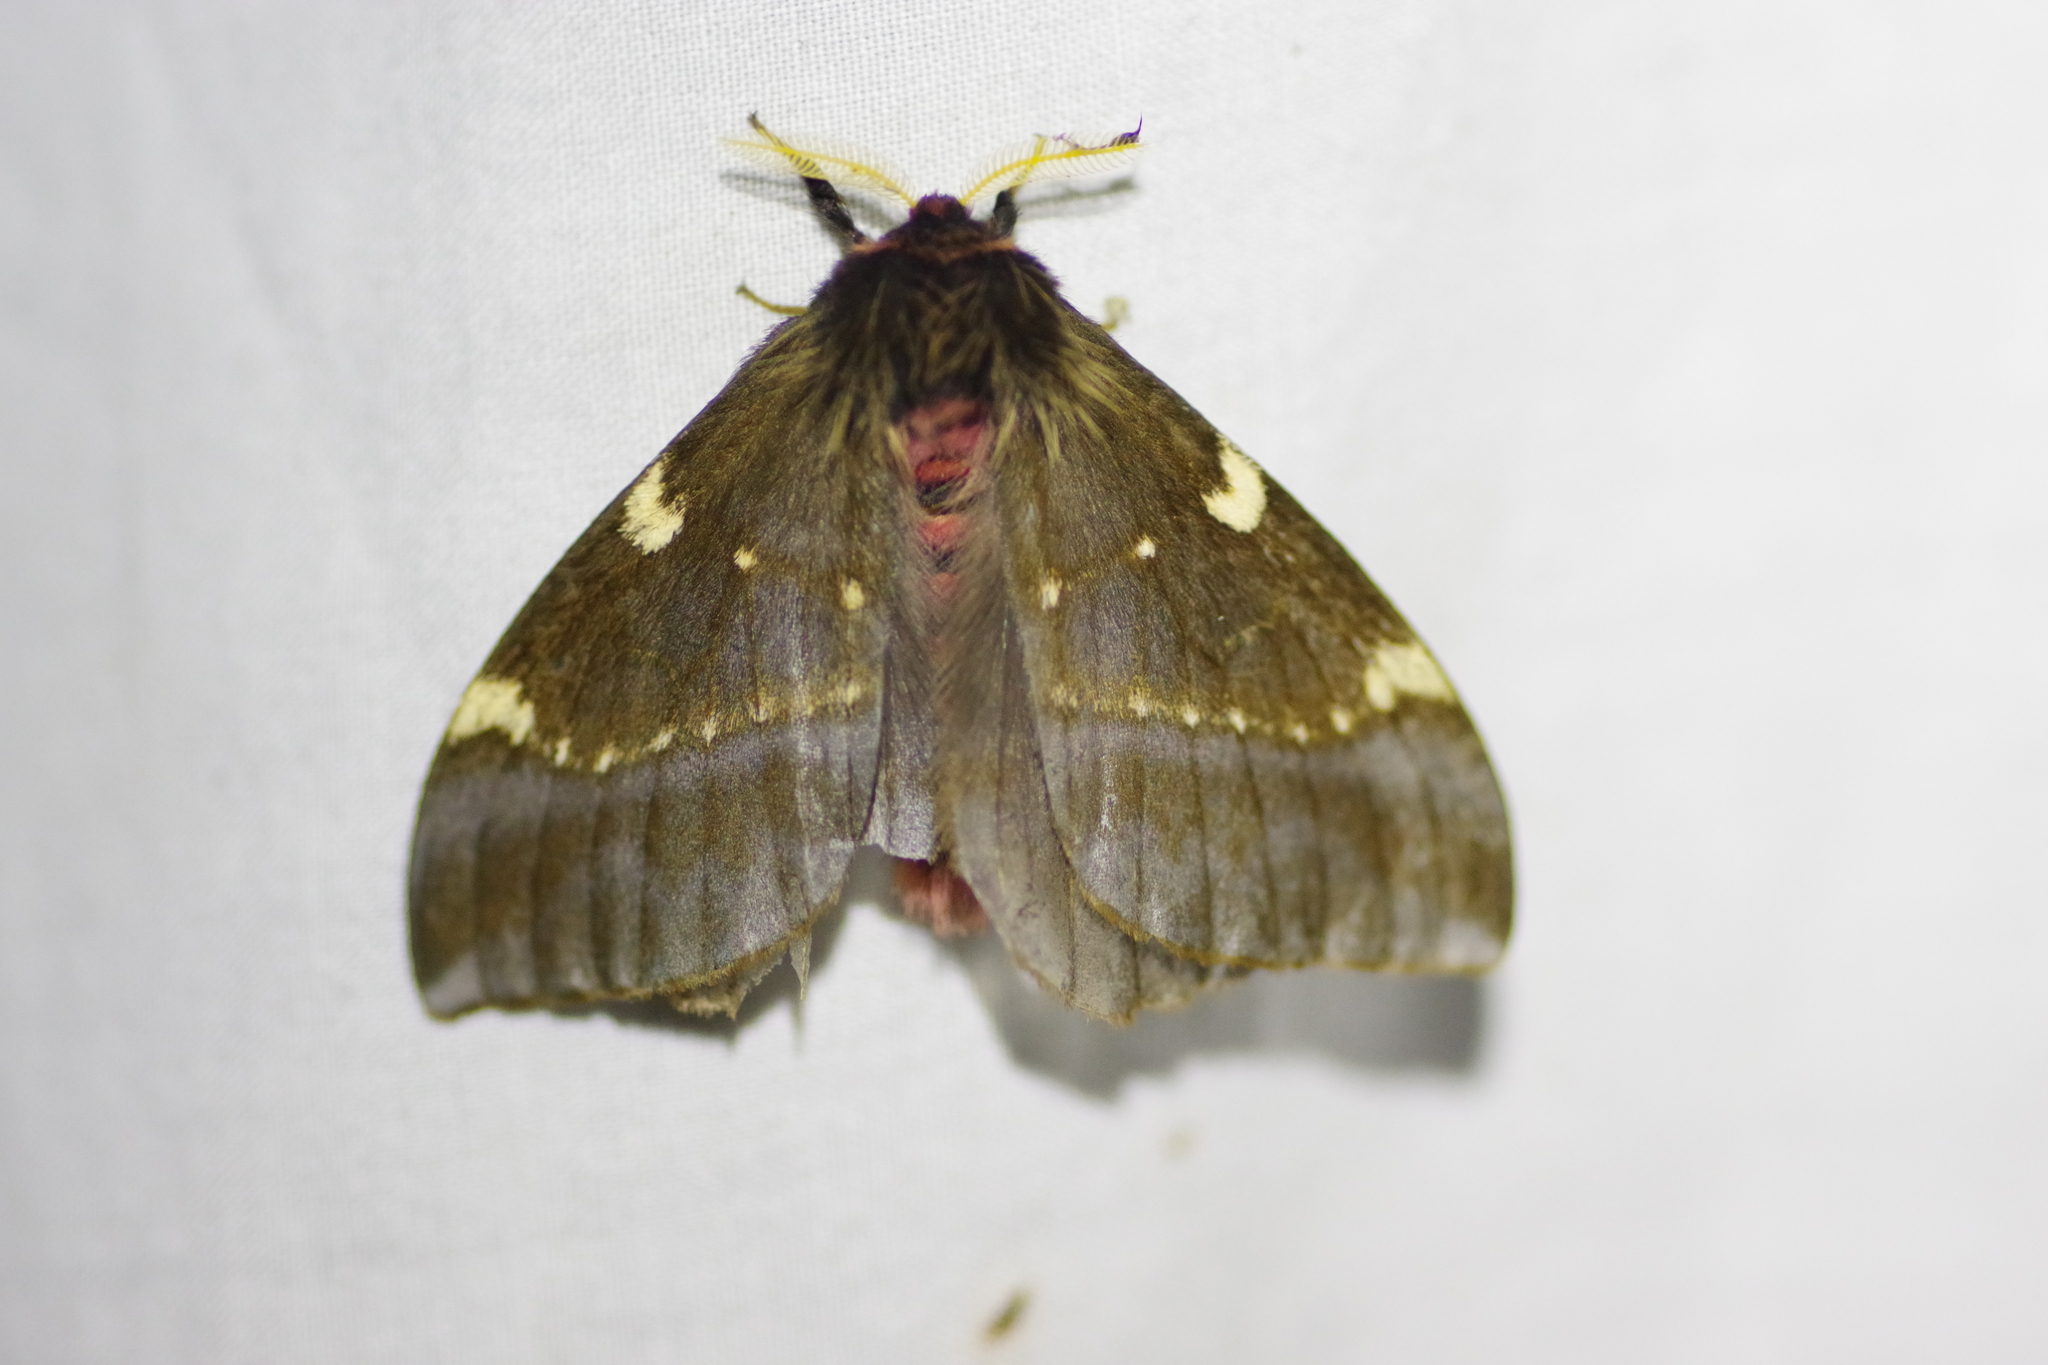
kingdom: Animalia
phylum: Arthropoda
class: Insecta
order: Lepidoptera
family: Saturniidae
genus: Paradirphia
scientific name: Paradirphia talamancaia
